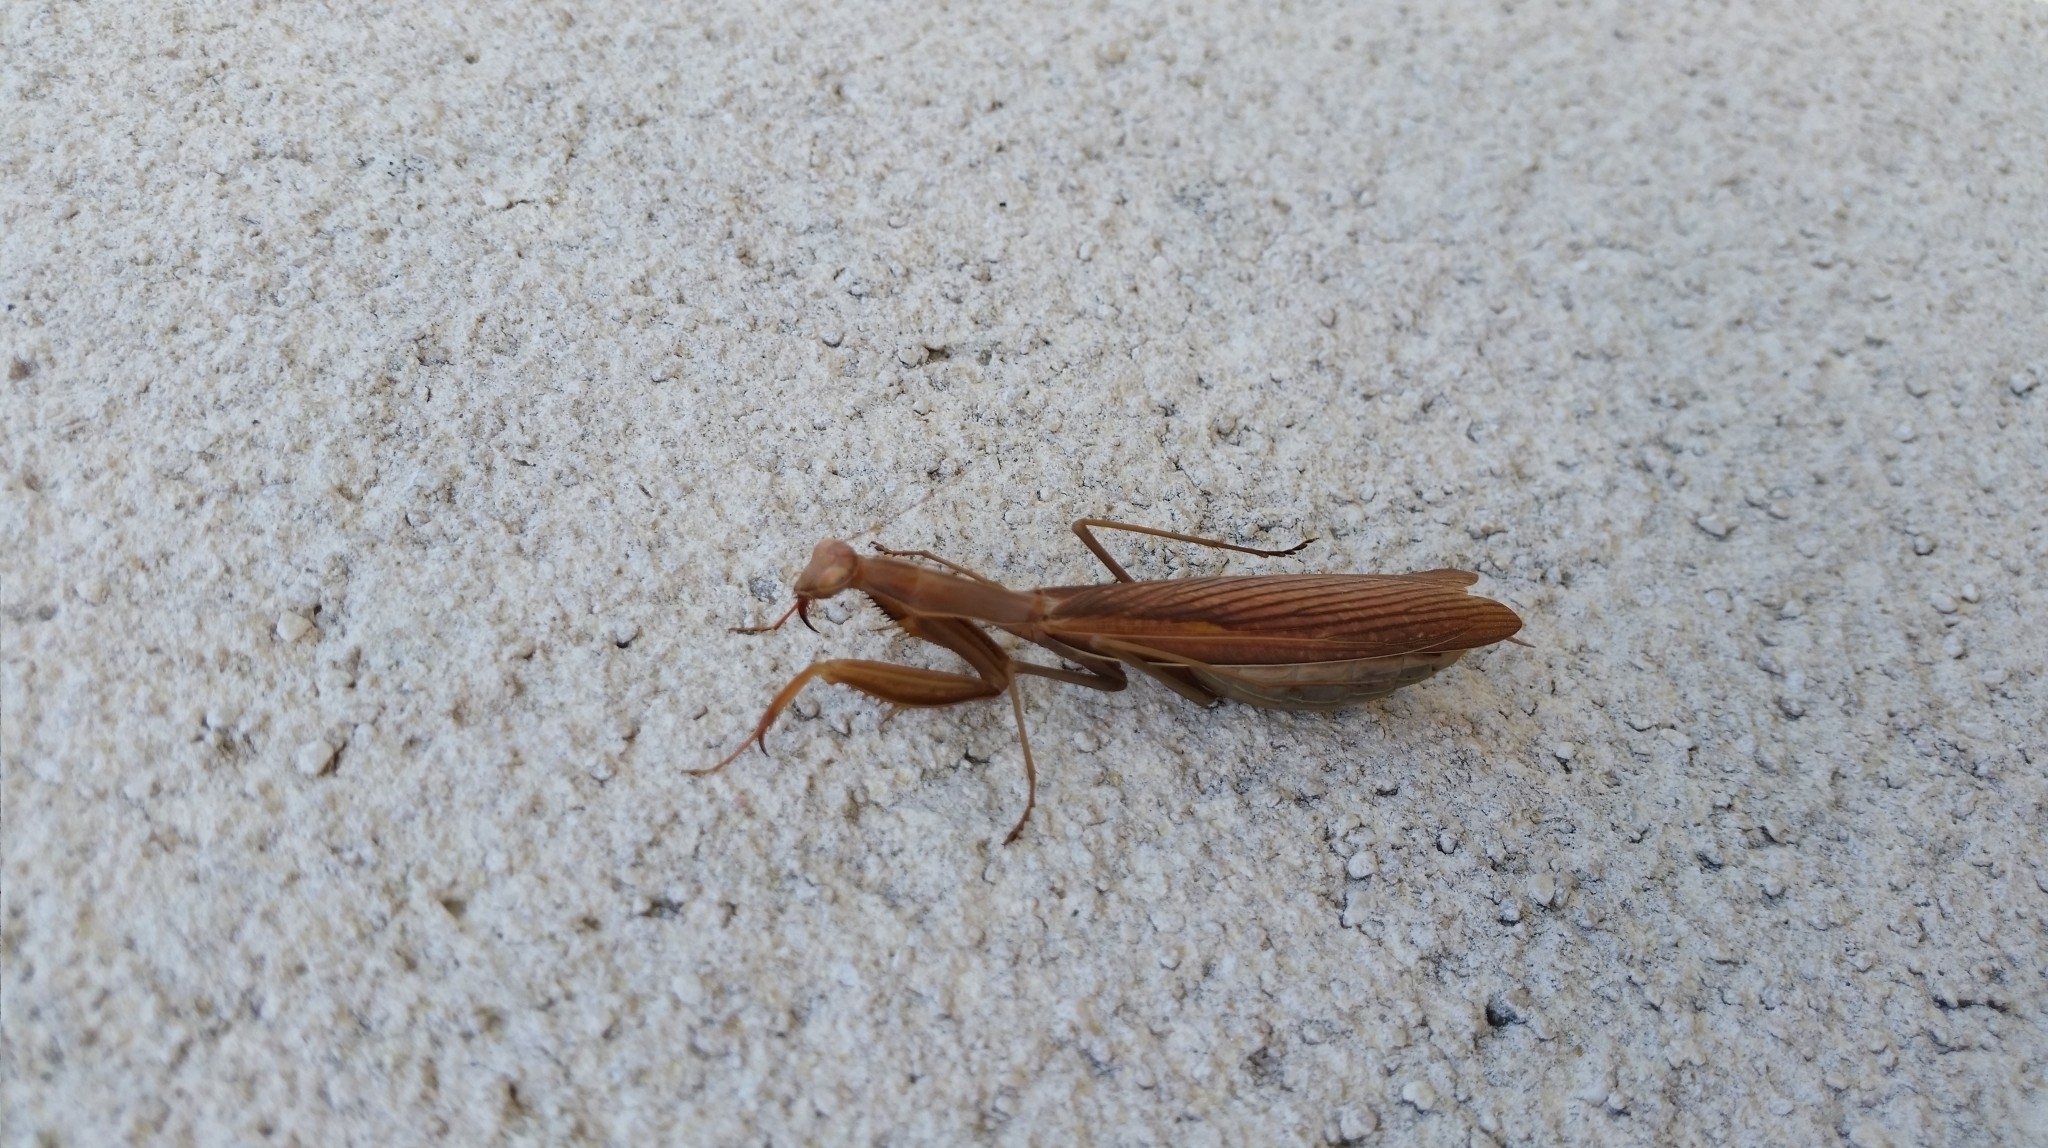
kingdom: Animalia
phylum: Arthropoda
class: Insecta
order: Mantodea
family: Mantidae
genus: Mantis
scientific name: Mantis religiosa
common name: Praying mantis
